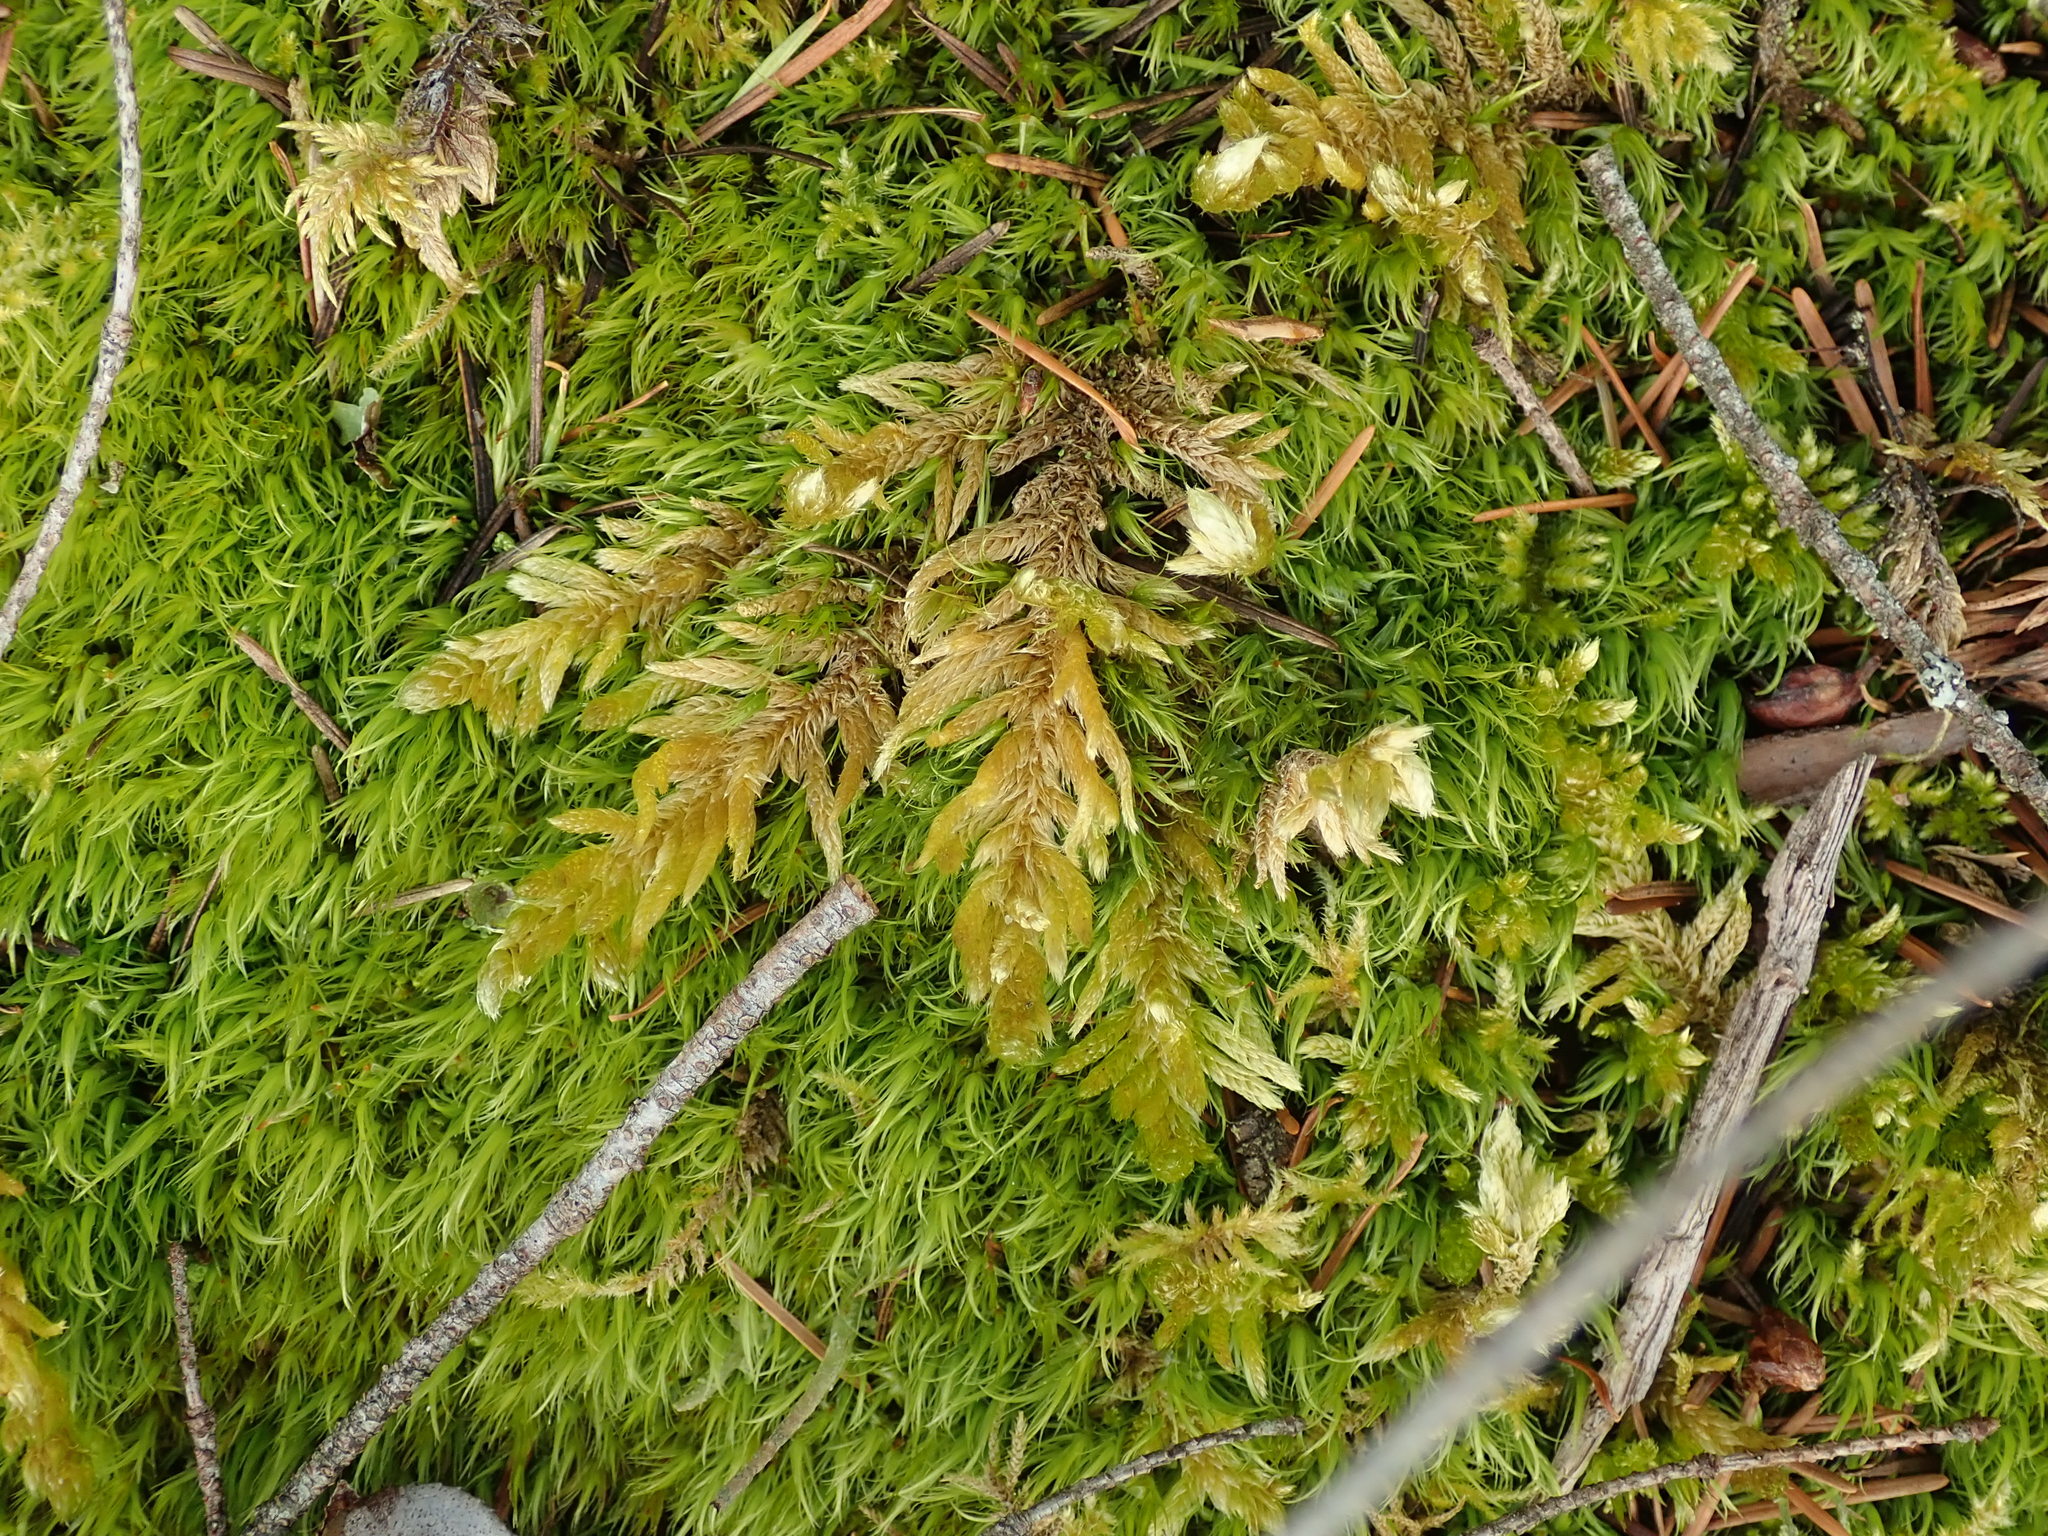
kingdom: Plantae
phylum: Bryophyta
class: Bryopsida
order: Hypnales
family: Brachytheciaceae
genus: Homalothecium
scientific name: Homalothecium megaptilum
